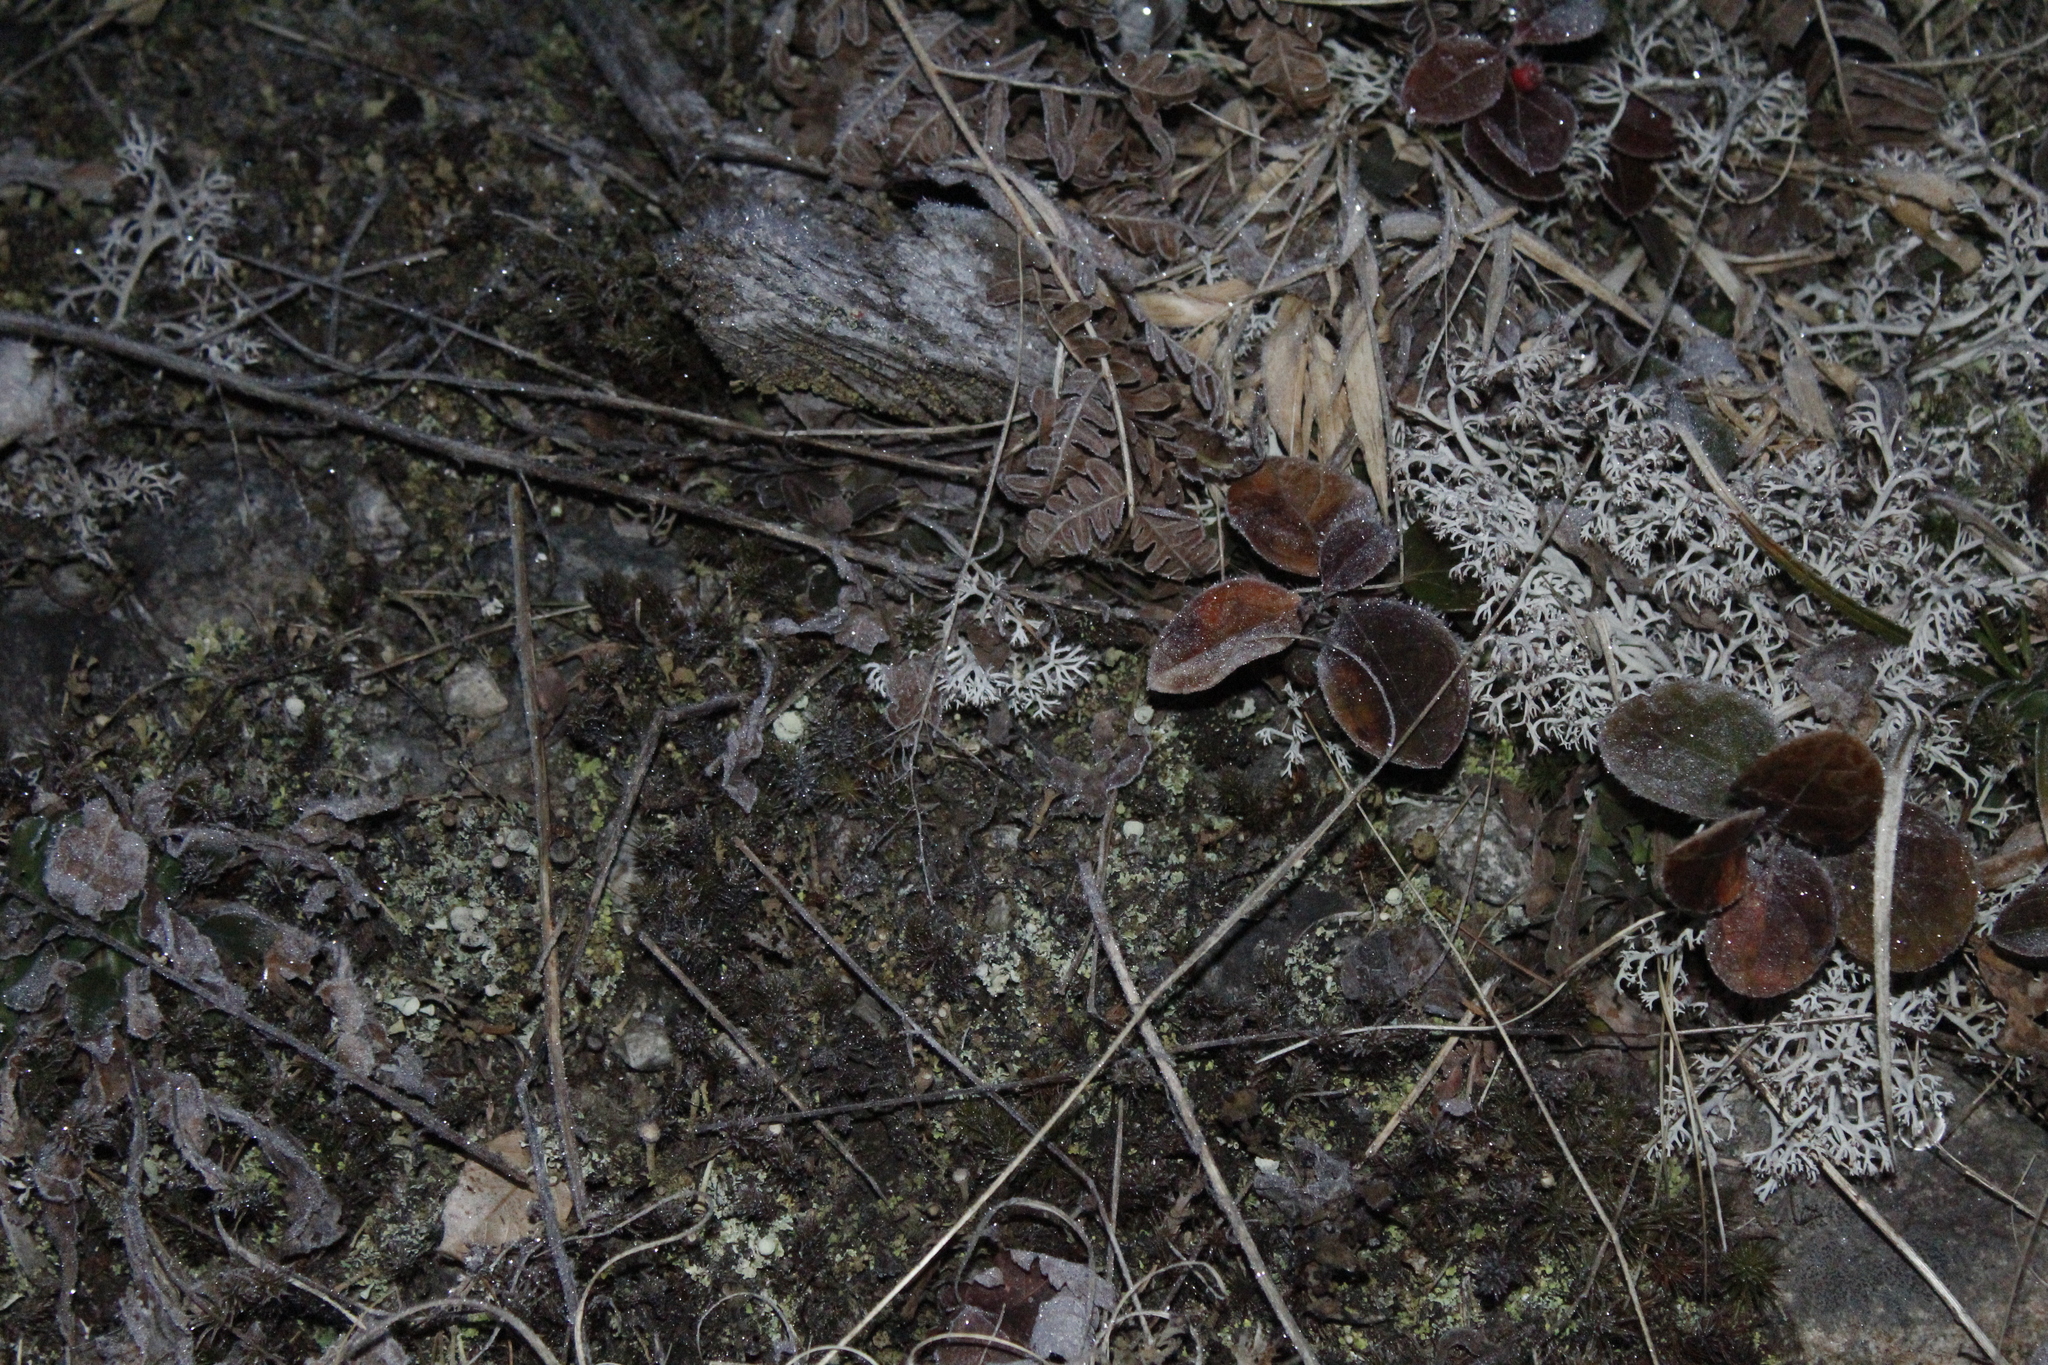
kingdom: Plantae
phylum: Tracheophyta
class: Magnoliopsida
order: Ericales
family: Ericaceae
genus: Gaultheria
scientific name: Gaultheria procumbens
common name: Checkerberry
